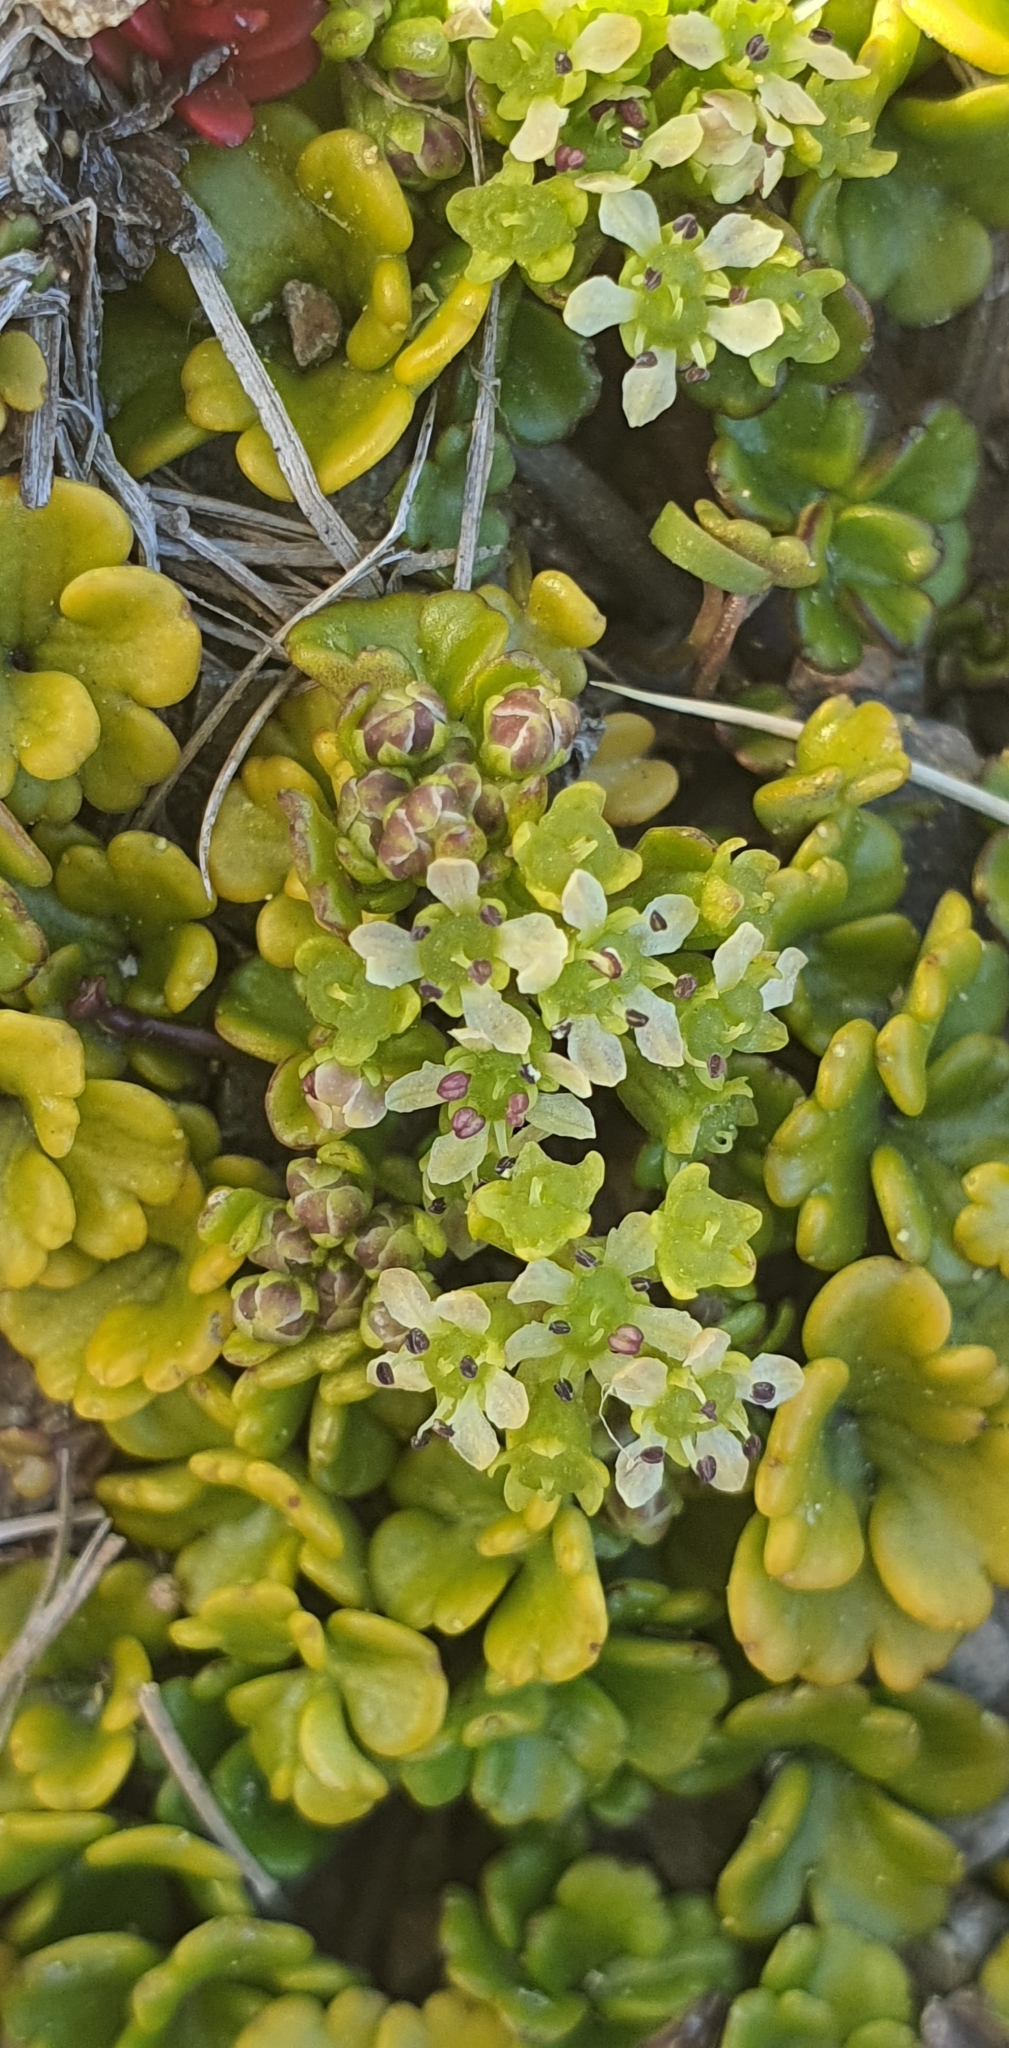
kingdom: Plantae
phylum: Tracheophyta
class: Magnoliopsida
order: Apiales
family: Apiaceae
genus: Azorella
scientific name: Azorella hydrocotyloides
